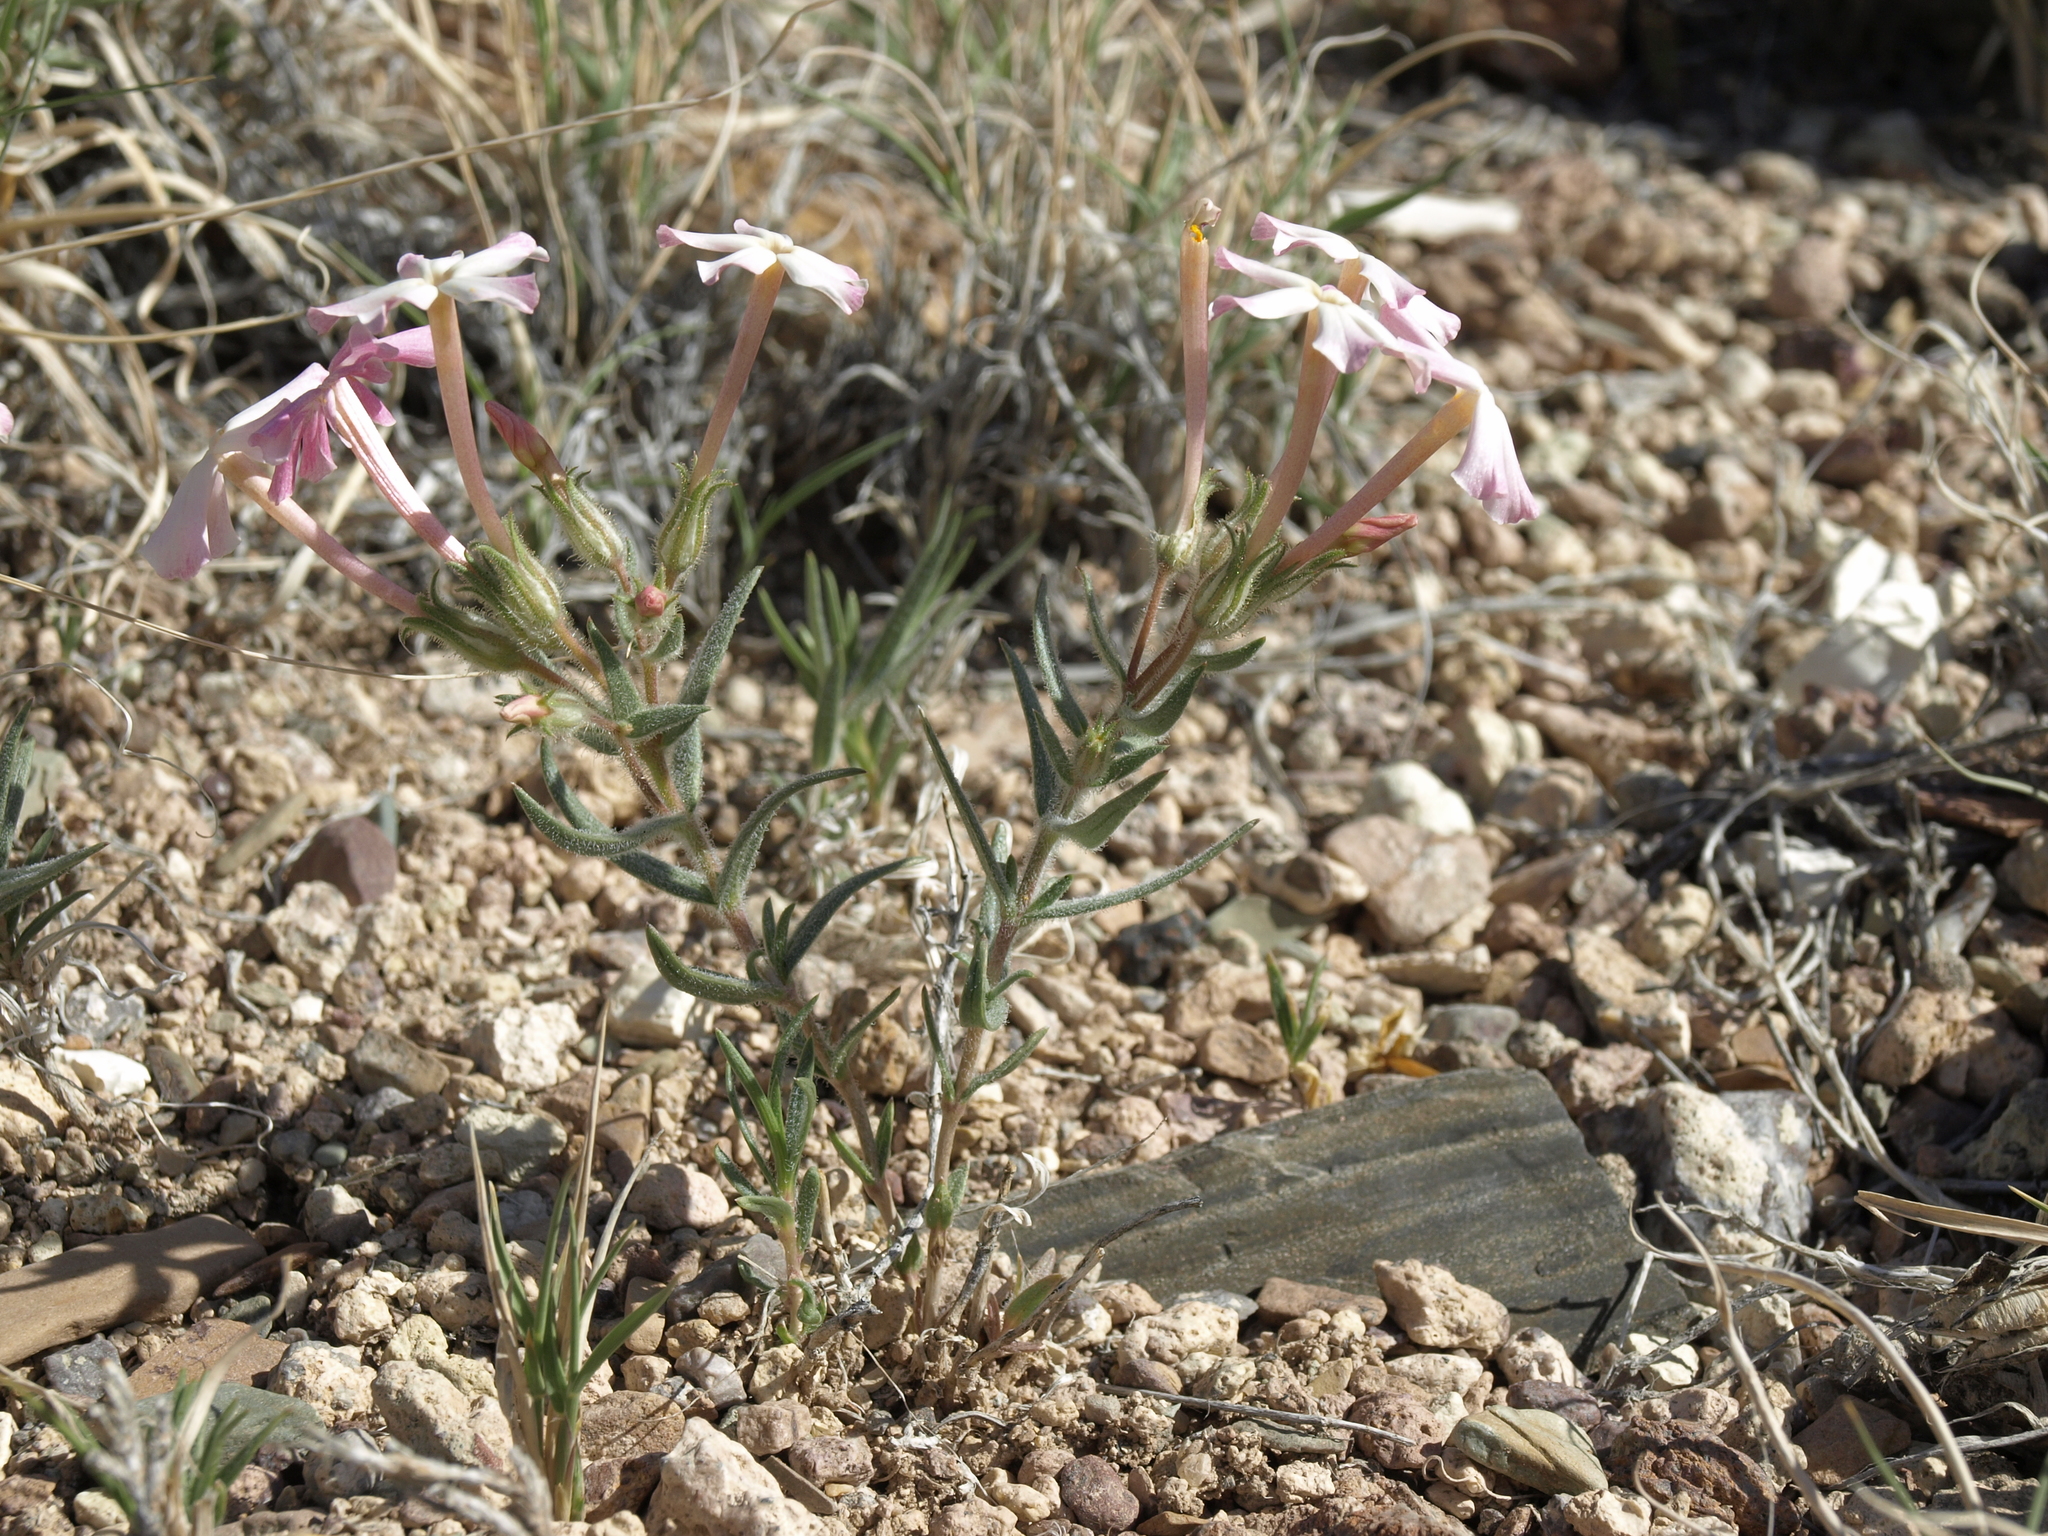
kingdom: Plantae
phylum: Tracheophyta
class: Magnoliopsida
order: Ericales
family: Polemoniaceae
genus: Phlox
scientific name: Phlox longifolia
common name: Longleaf phlox
